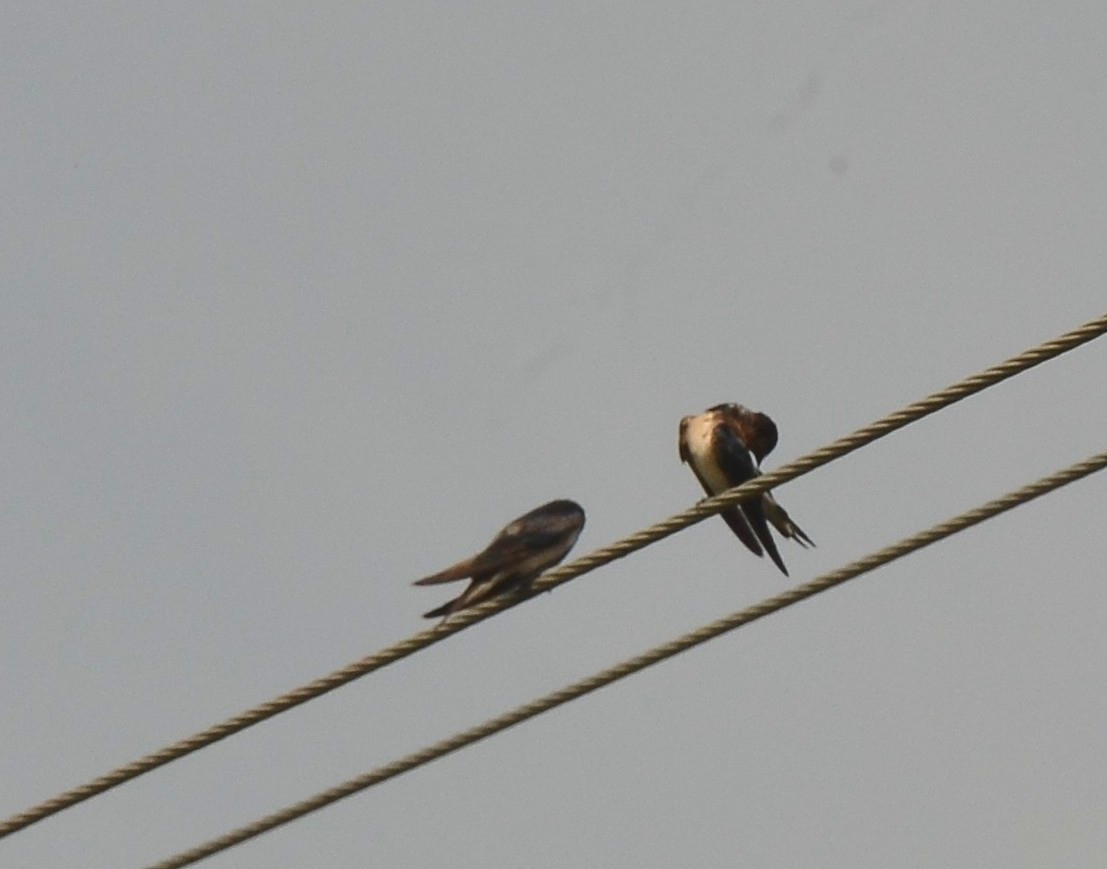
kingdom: Animalia
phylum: Chordata
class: Aves
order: Passeriformes
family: Hirundinidae
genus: Hirundo
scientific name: Hirundo rustica
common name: Barn swallow
